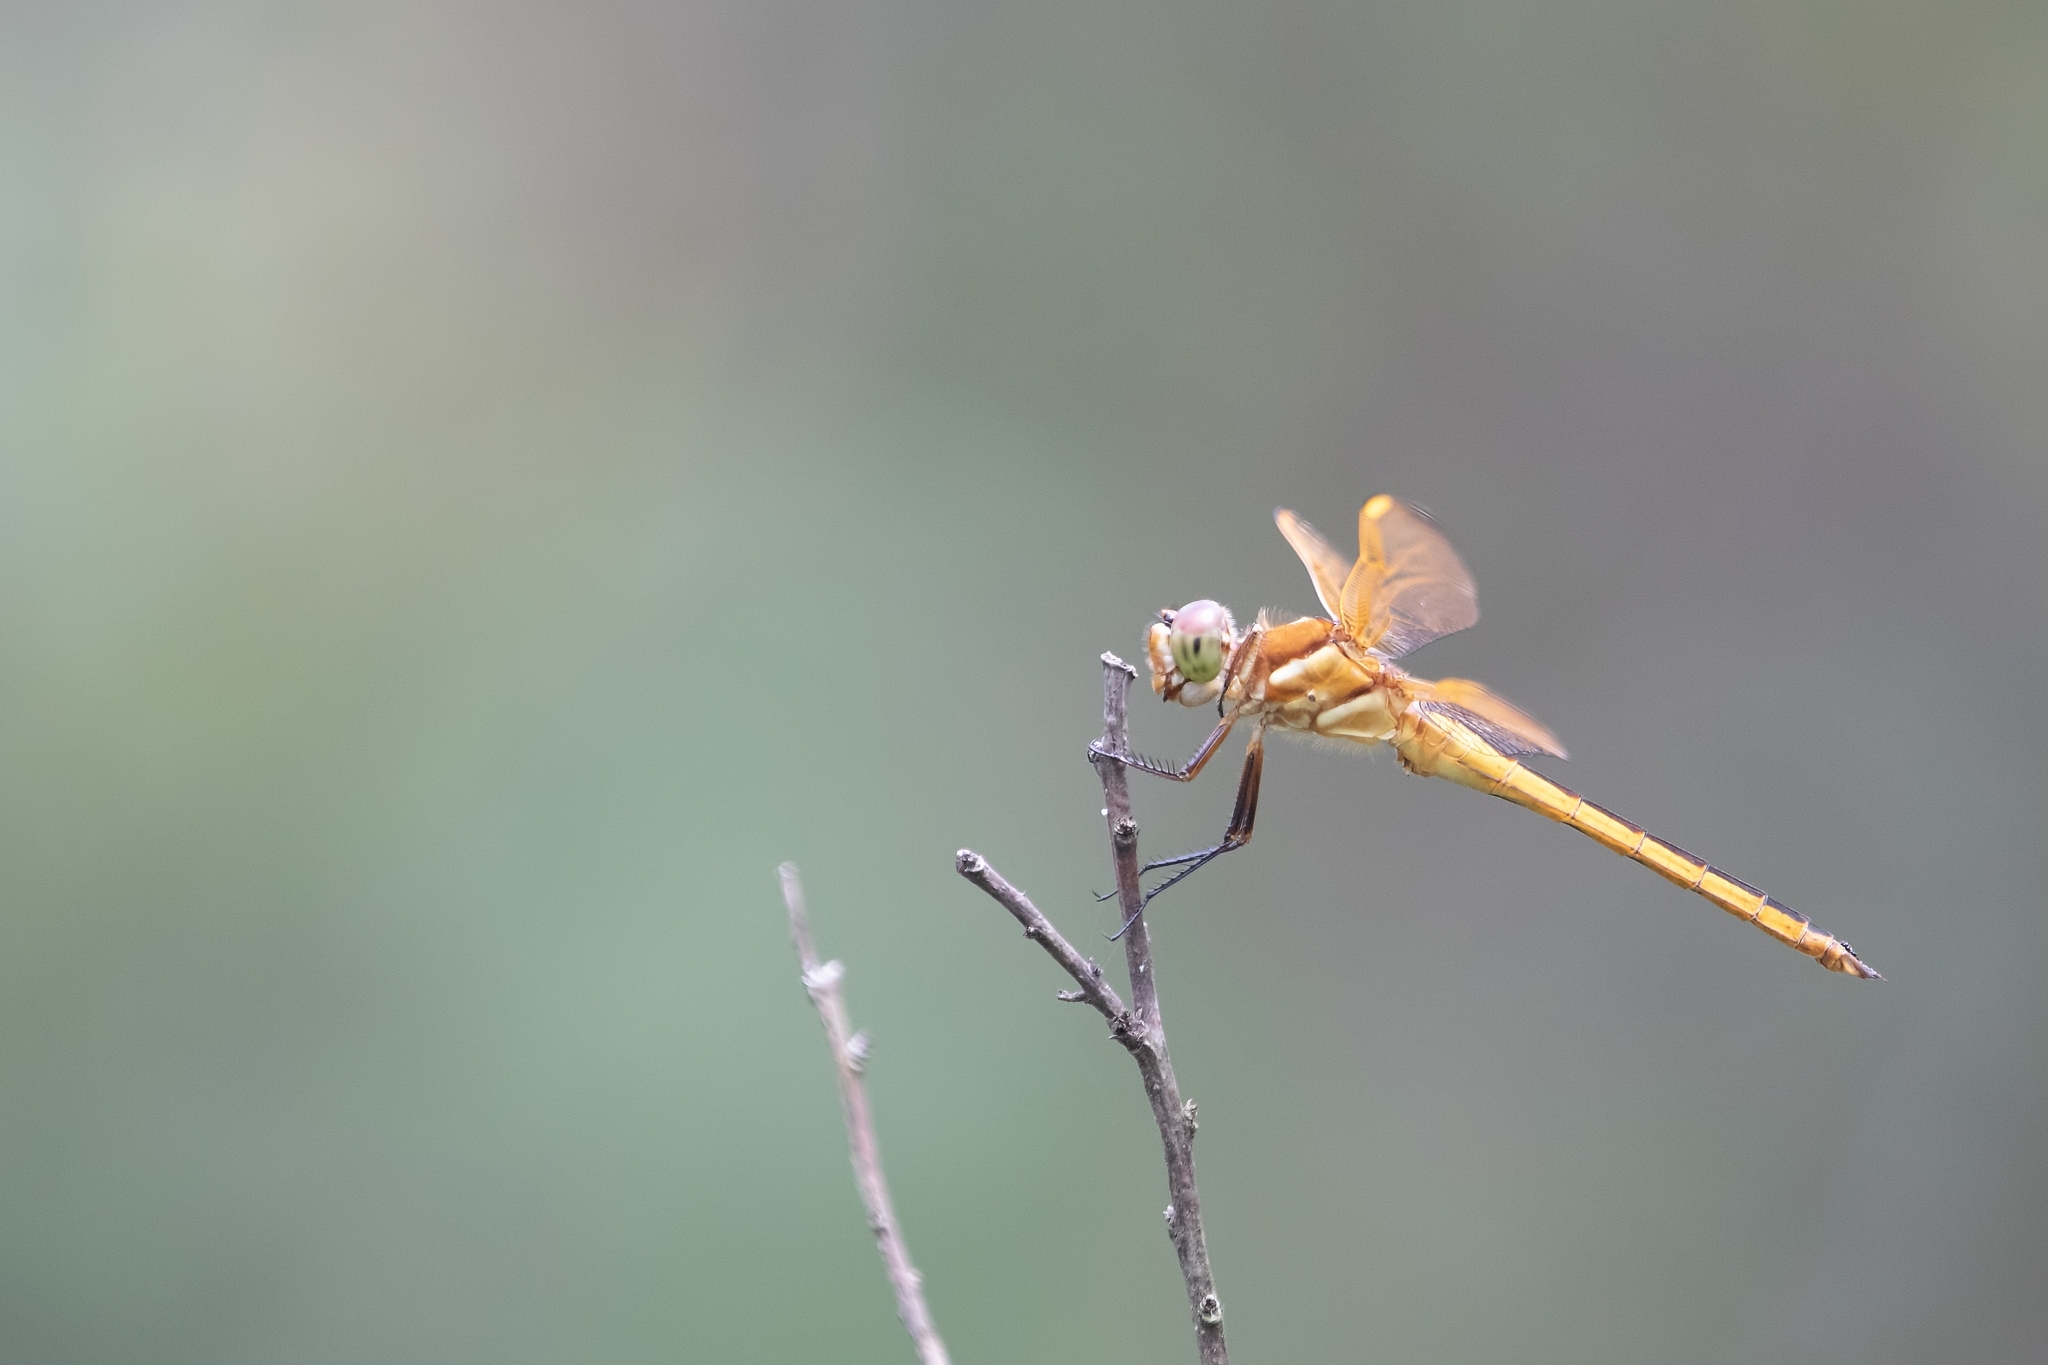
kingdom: Animalia
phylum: Arthropoda
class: Insecta
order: Odonata
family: Libellulidae
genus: Libellula
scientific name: Libellula auripennis
